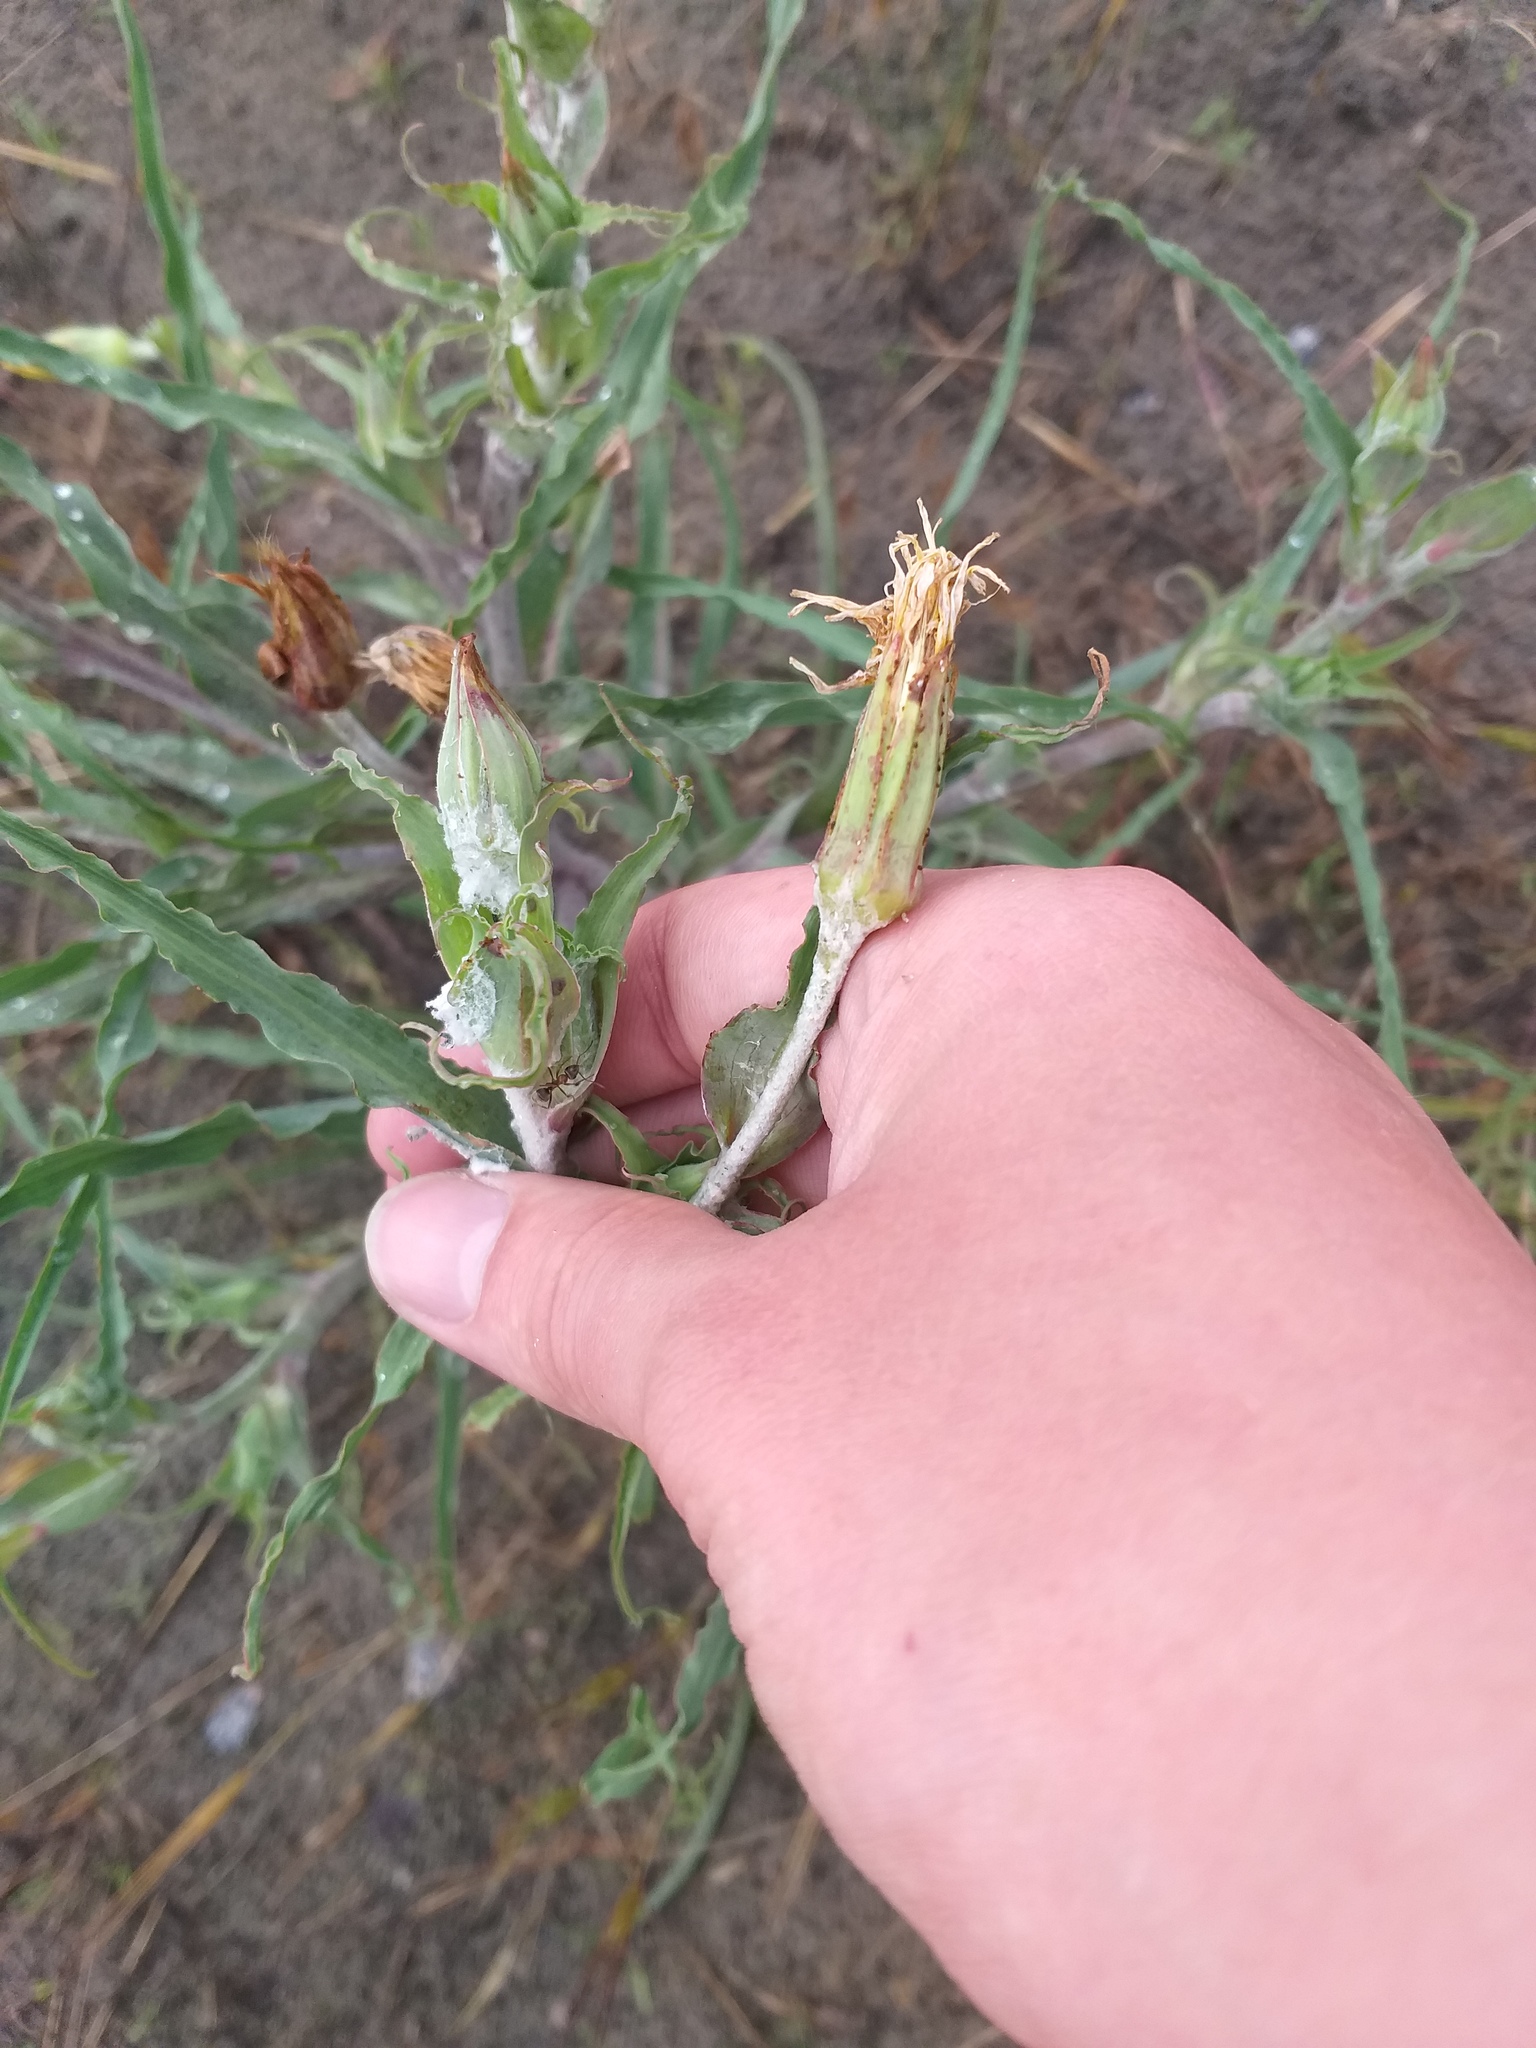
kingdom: Plantae
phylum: Tracheophyta
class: Magnoliopsida
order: Asterales
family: Asteraceae
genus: Tragopogon
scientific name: Tragopogon tanaiticus
